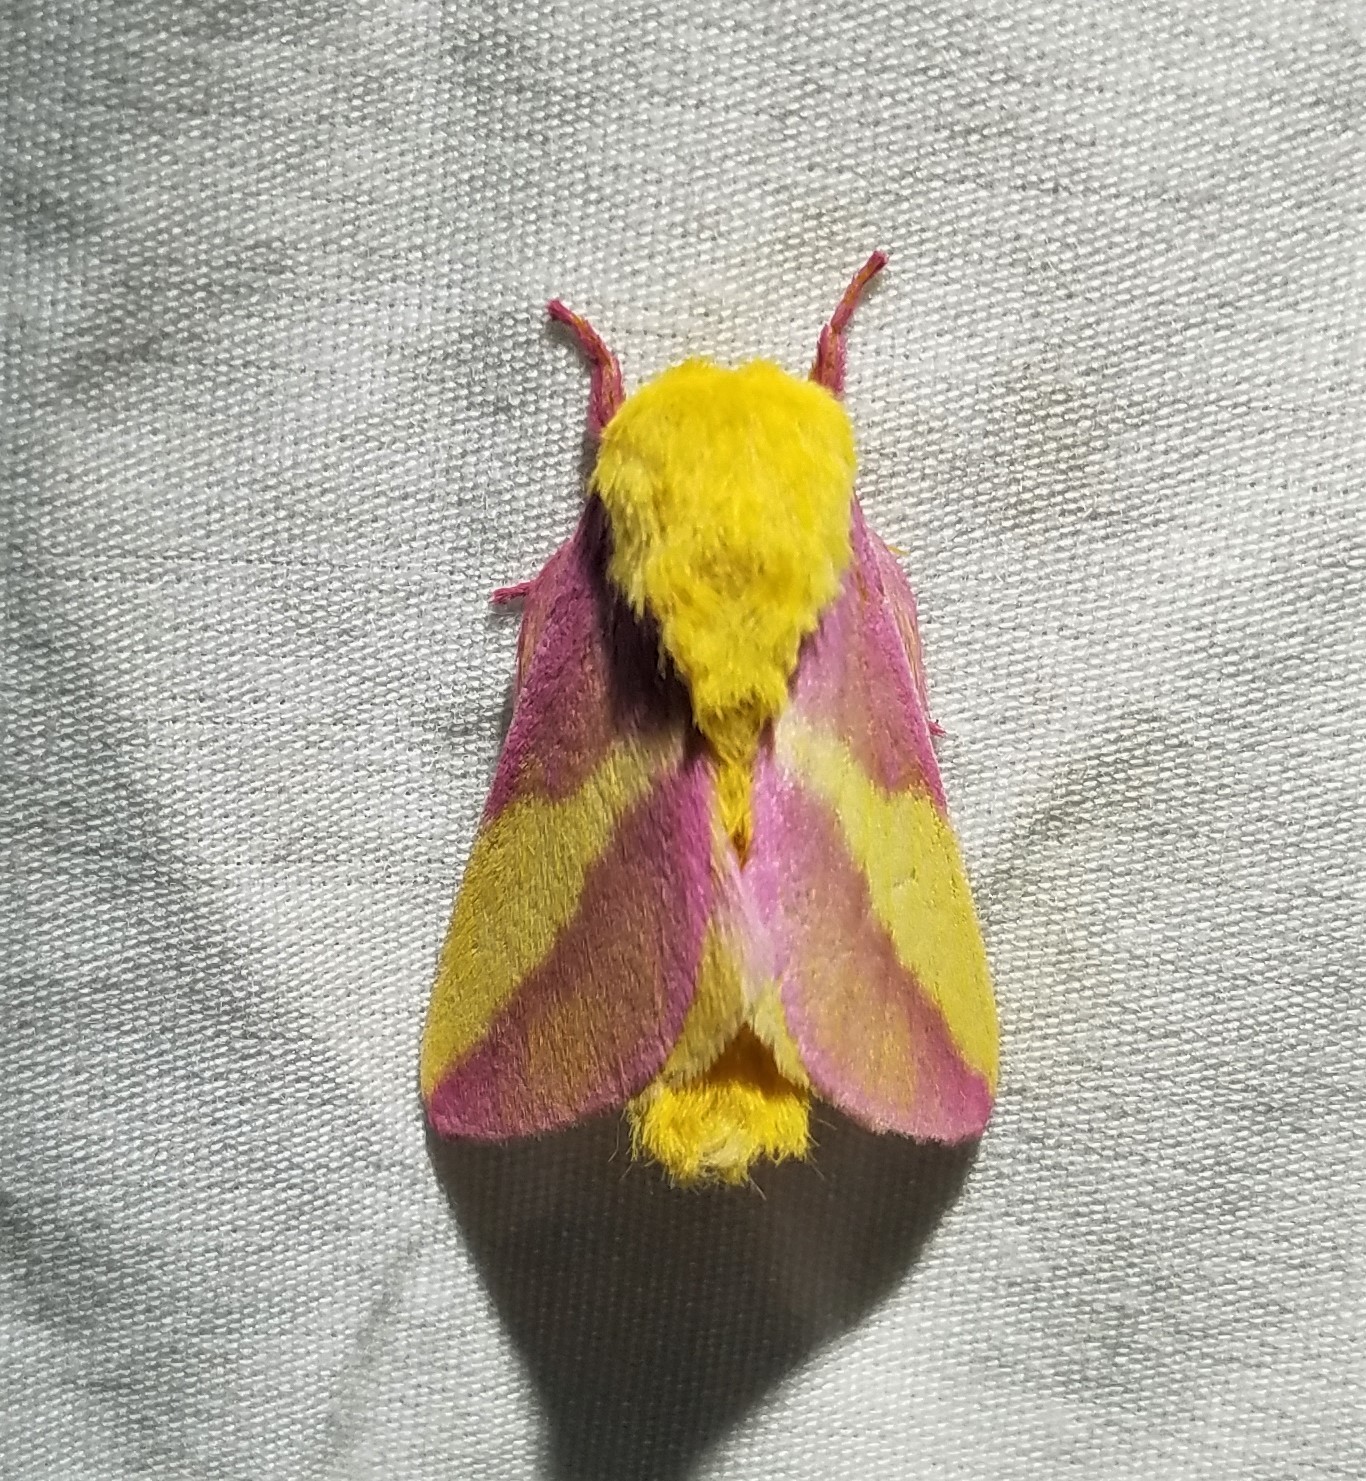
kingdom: Animalia
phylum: Arthropoda
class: Insecta
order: Lepidoptera
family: Saturniidae
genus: Dryocampa
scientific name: Dryocampa rubicunda
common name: Rosy maple moth
